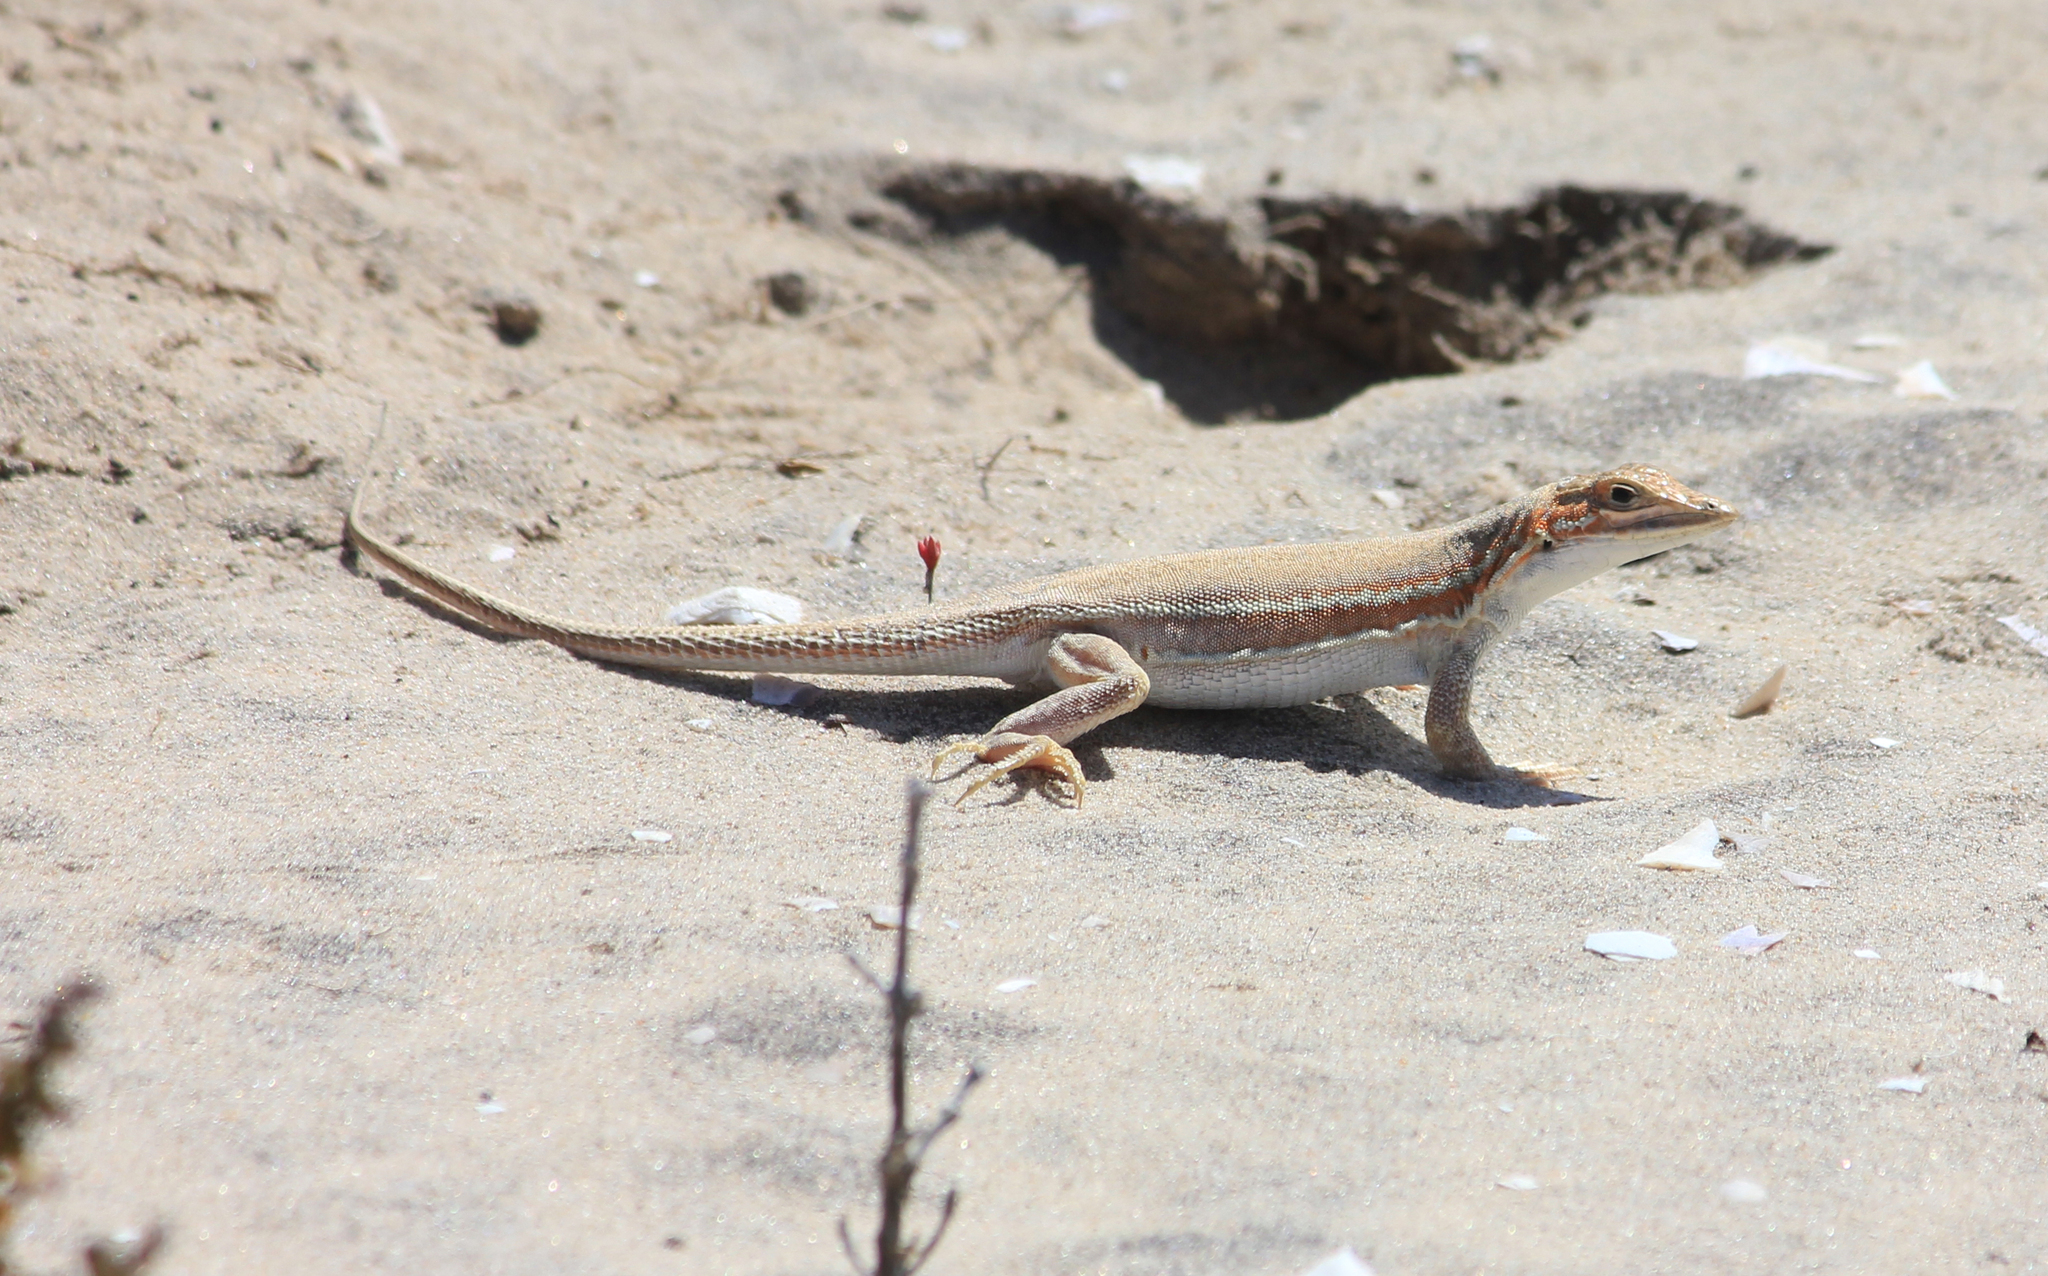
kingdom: Animalia
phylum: Chordata
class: Squamata
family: Lacertidae
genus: Meroles
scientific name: Meroles ctenodactylus
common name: Giant desert lizard
